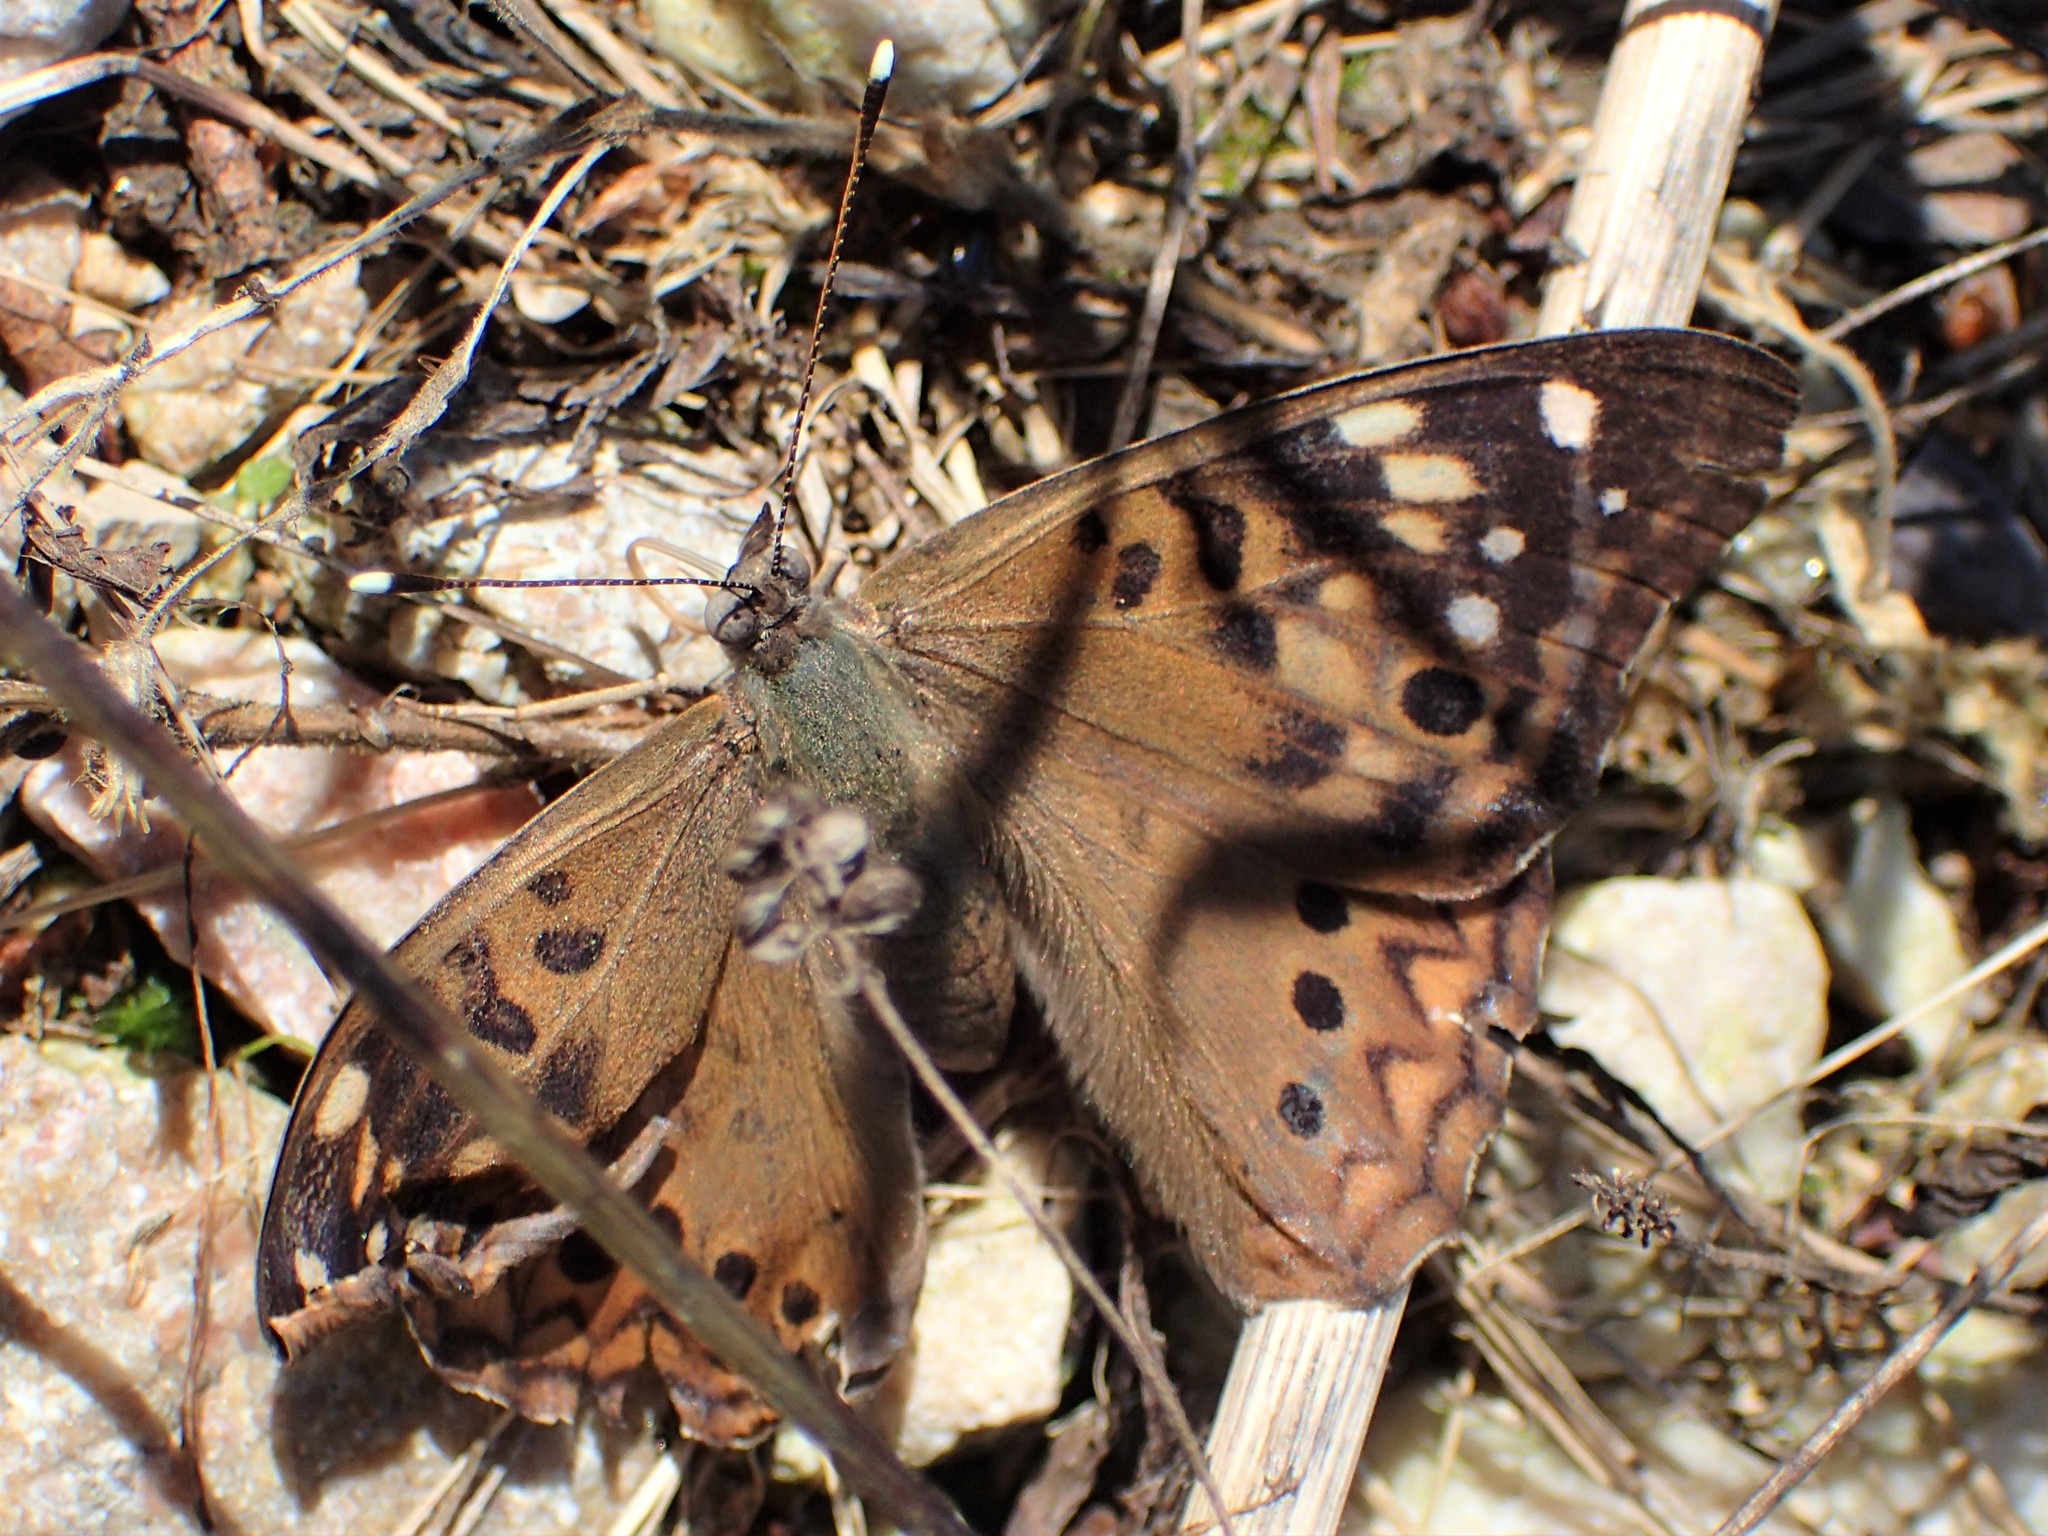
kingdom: Animalia
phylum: Arthropoda
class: Insecta
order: Lepidoptera
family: Nymphalidae
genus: Asterocampa
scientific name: Asterocampa celtis
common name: Hackberry emperor
